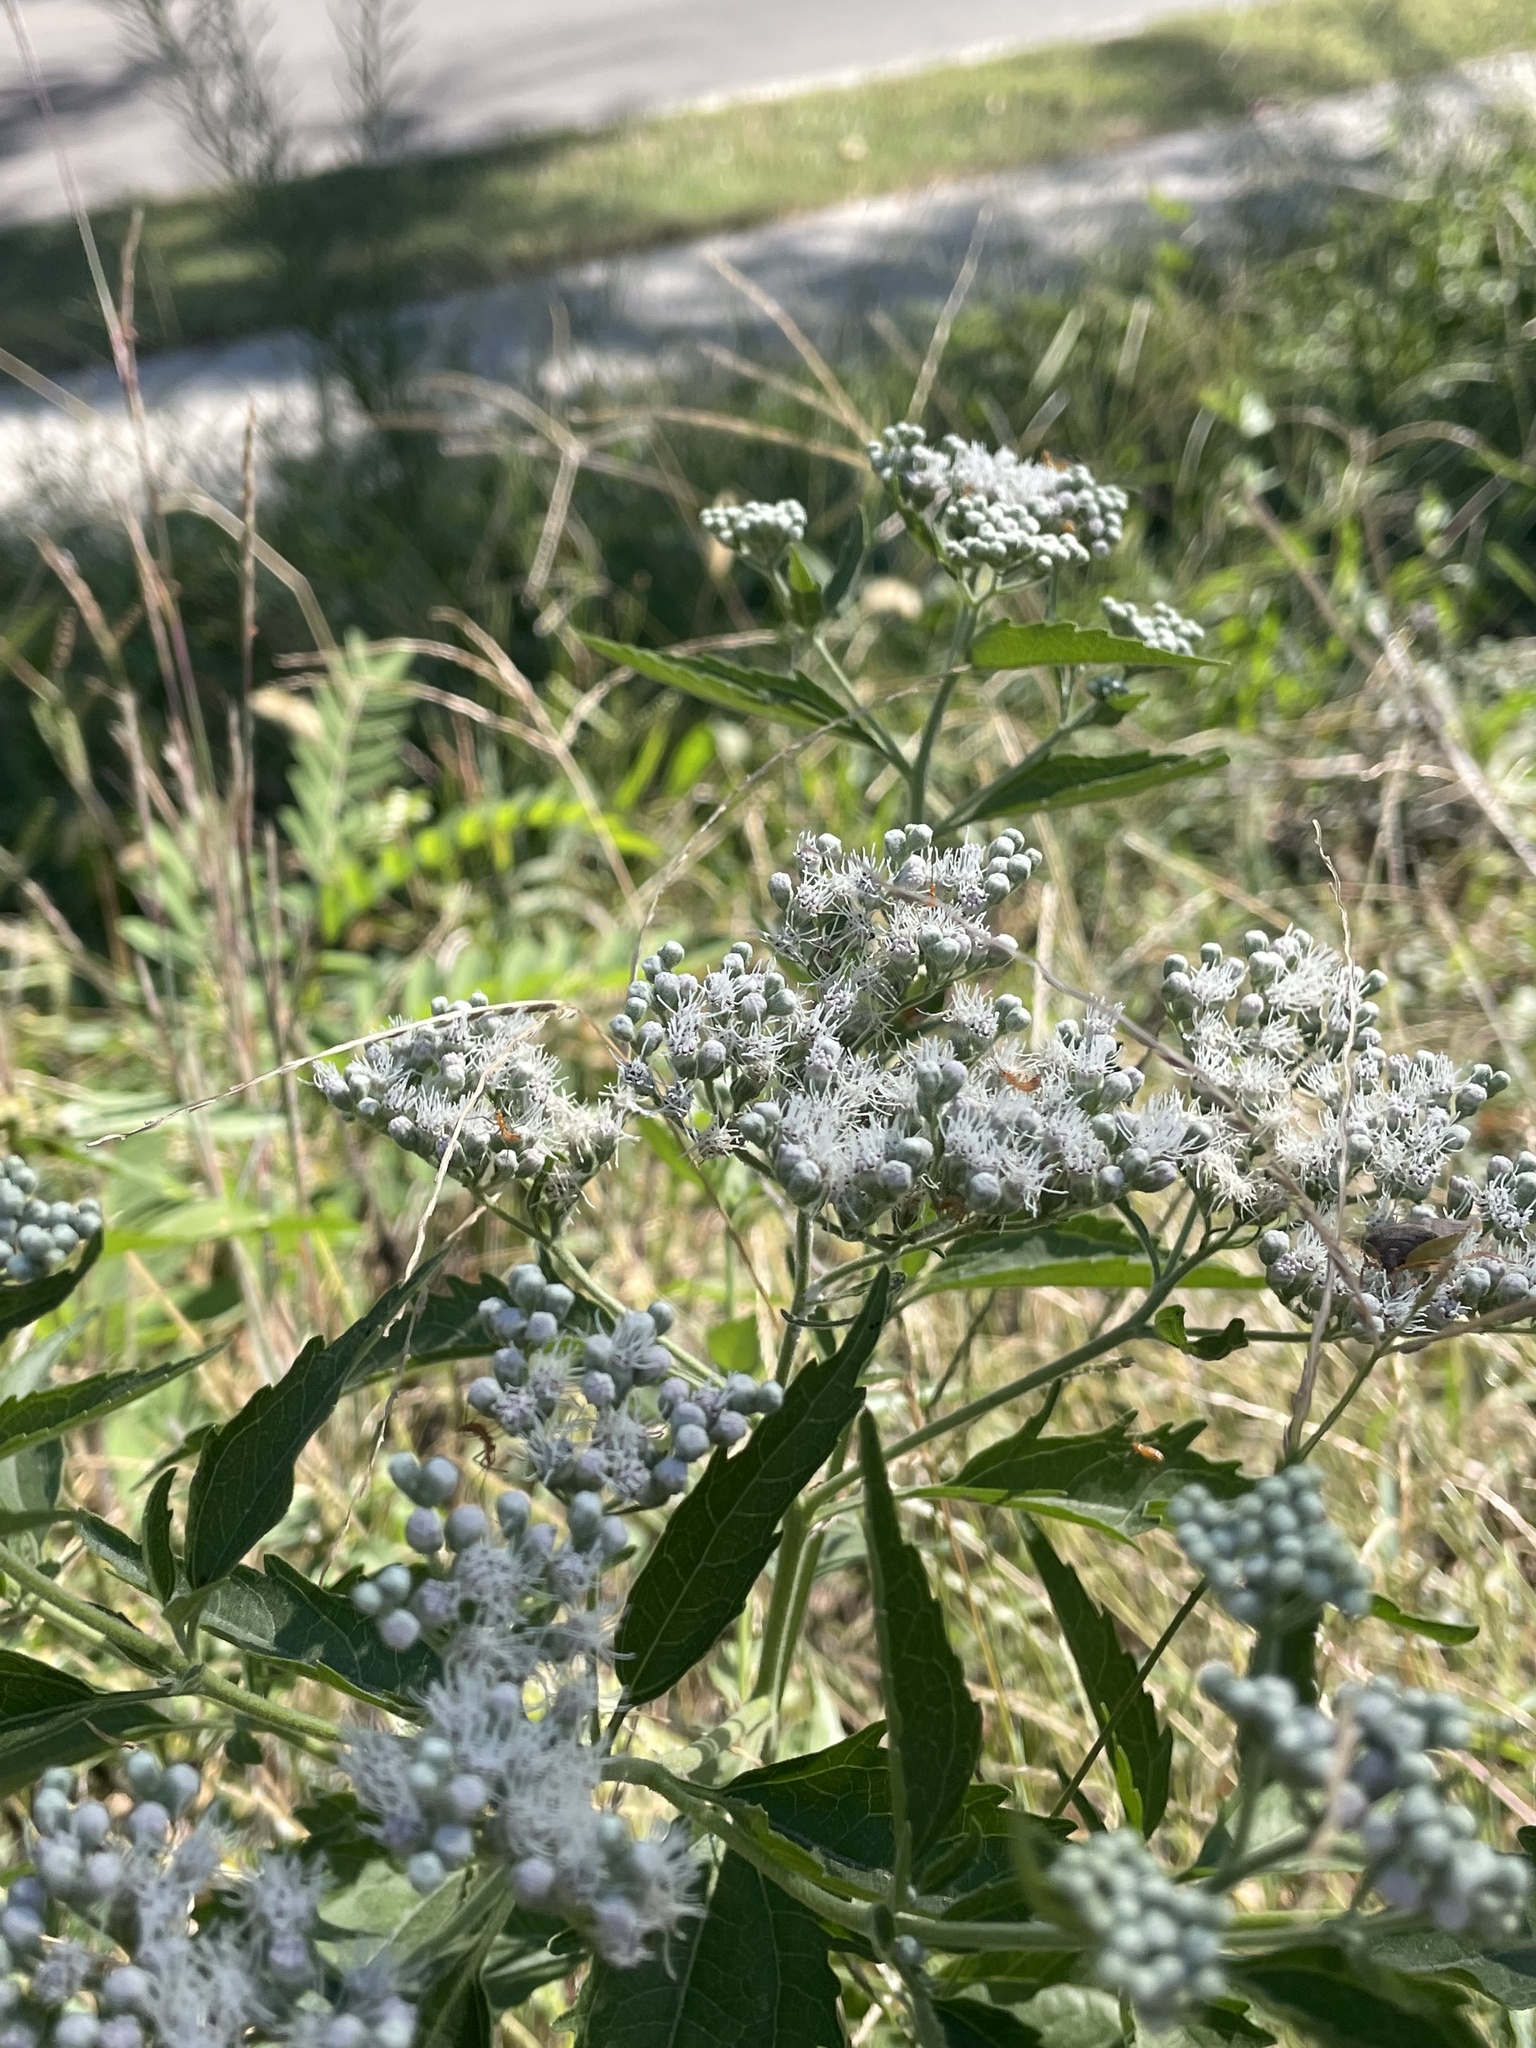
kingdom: Plantae
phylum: Tracheophyta
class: Magnoliopsida
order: Asterales
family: Asteraceae
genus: Eupatorium
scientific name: Eupatorium serotinum
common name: Late boneset
